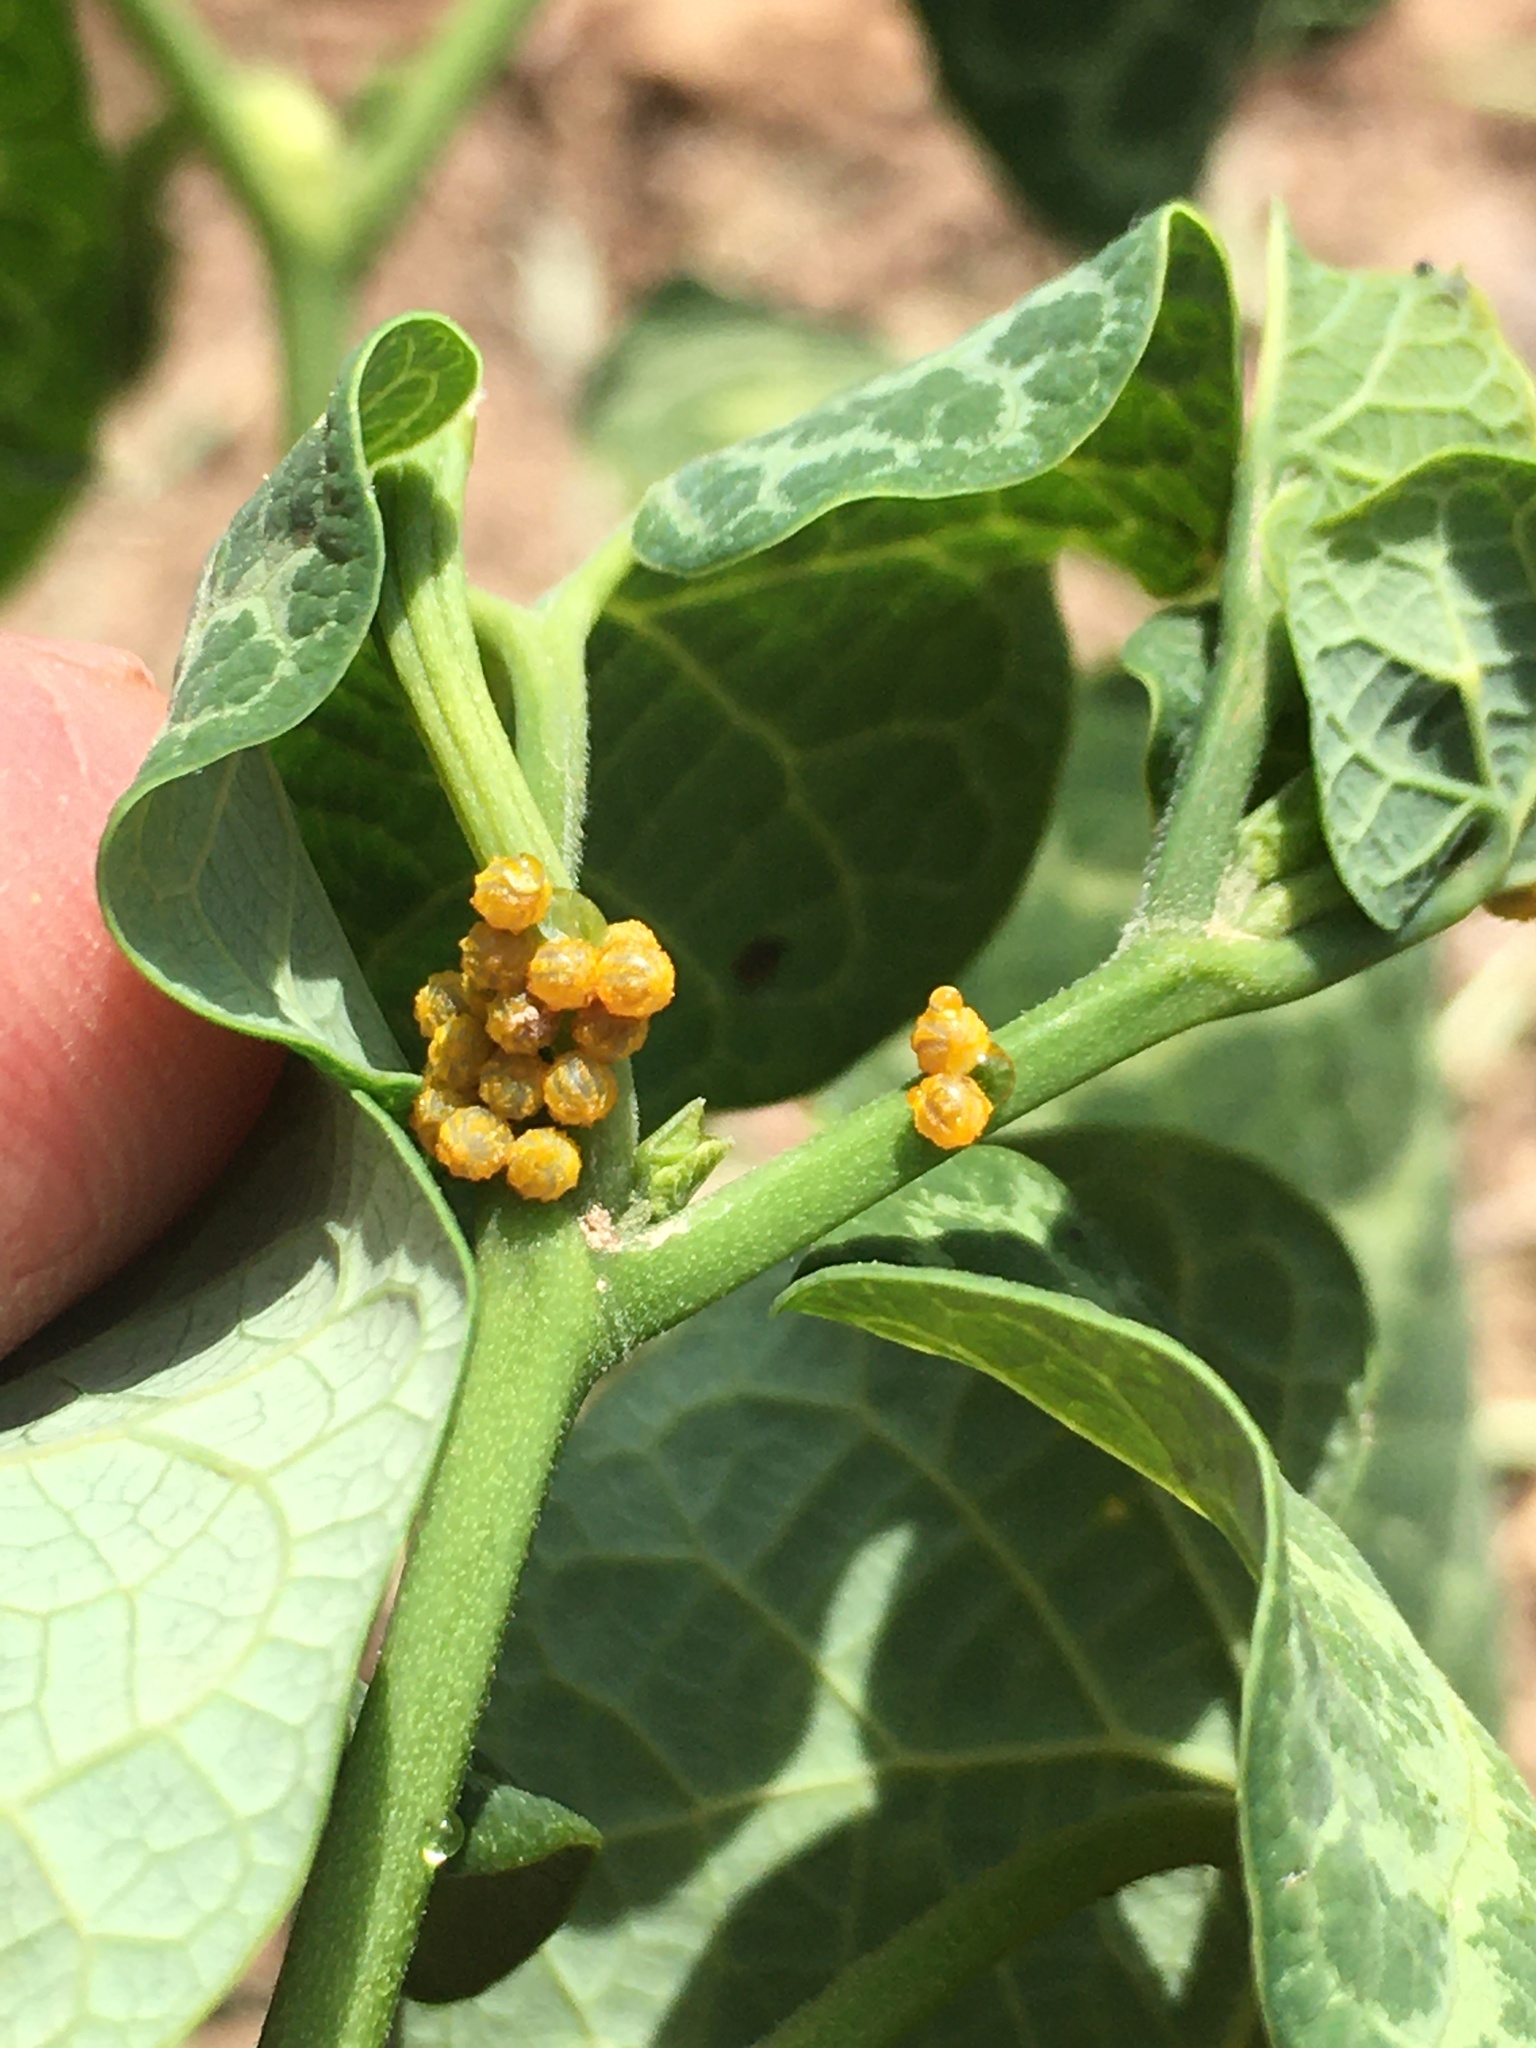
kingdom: Animalia
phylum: Arthropoda
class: Insecta
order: Lepidoptera
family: Papilionidae
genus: Battus
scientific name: Battus polydamas
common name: Polydamas swallowtail
